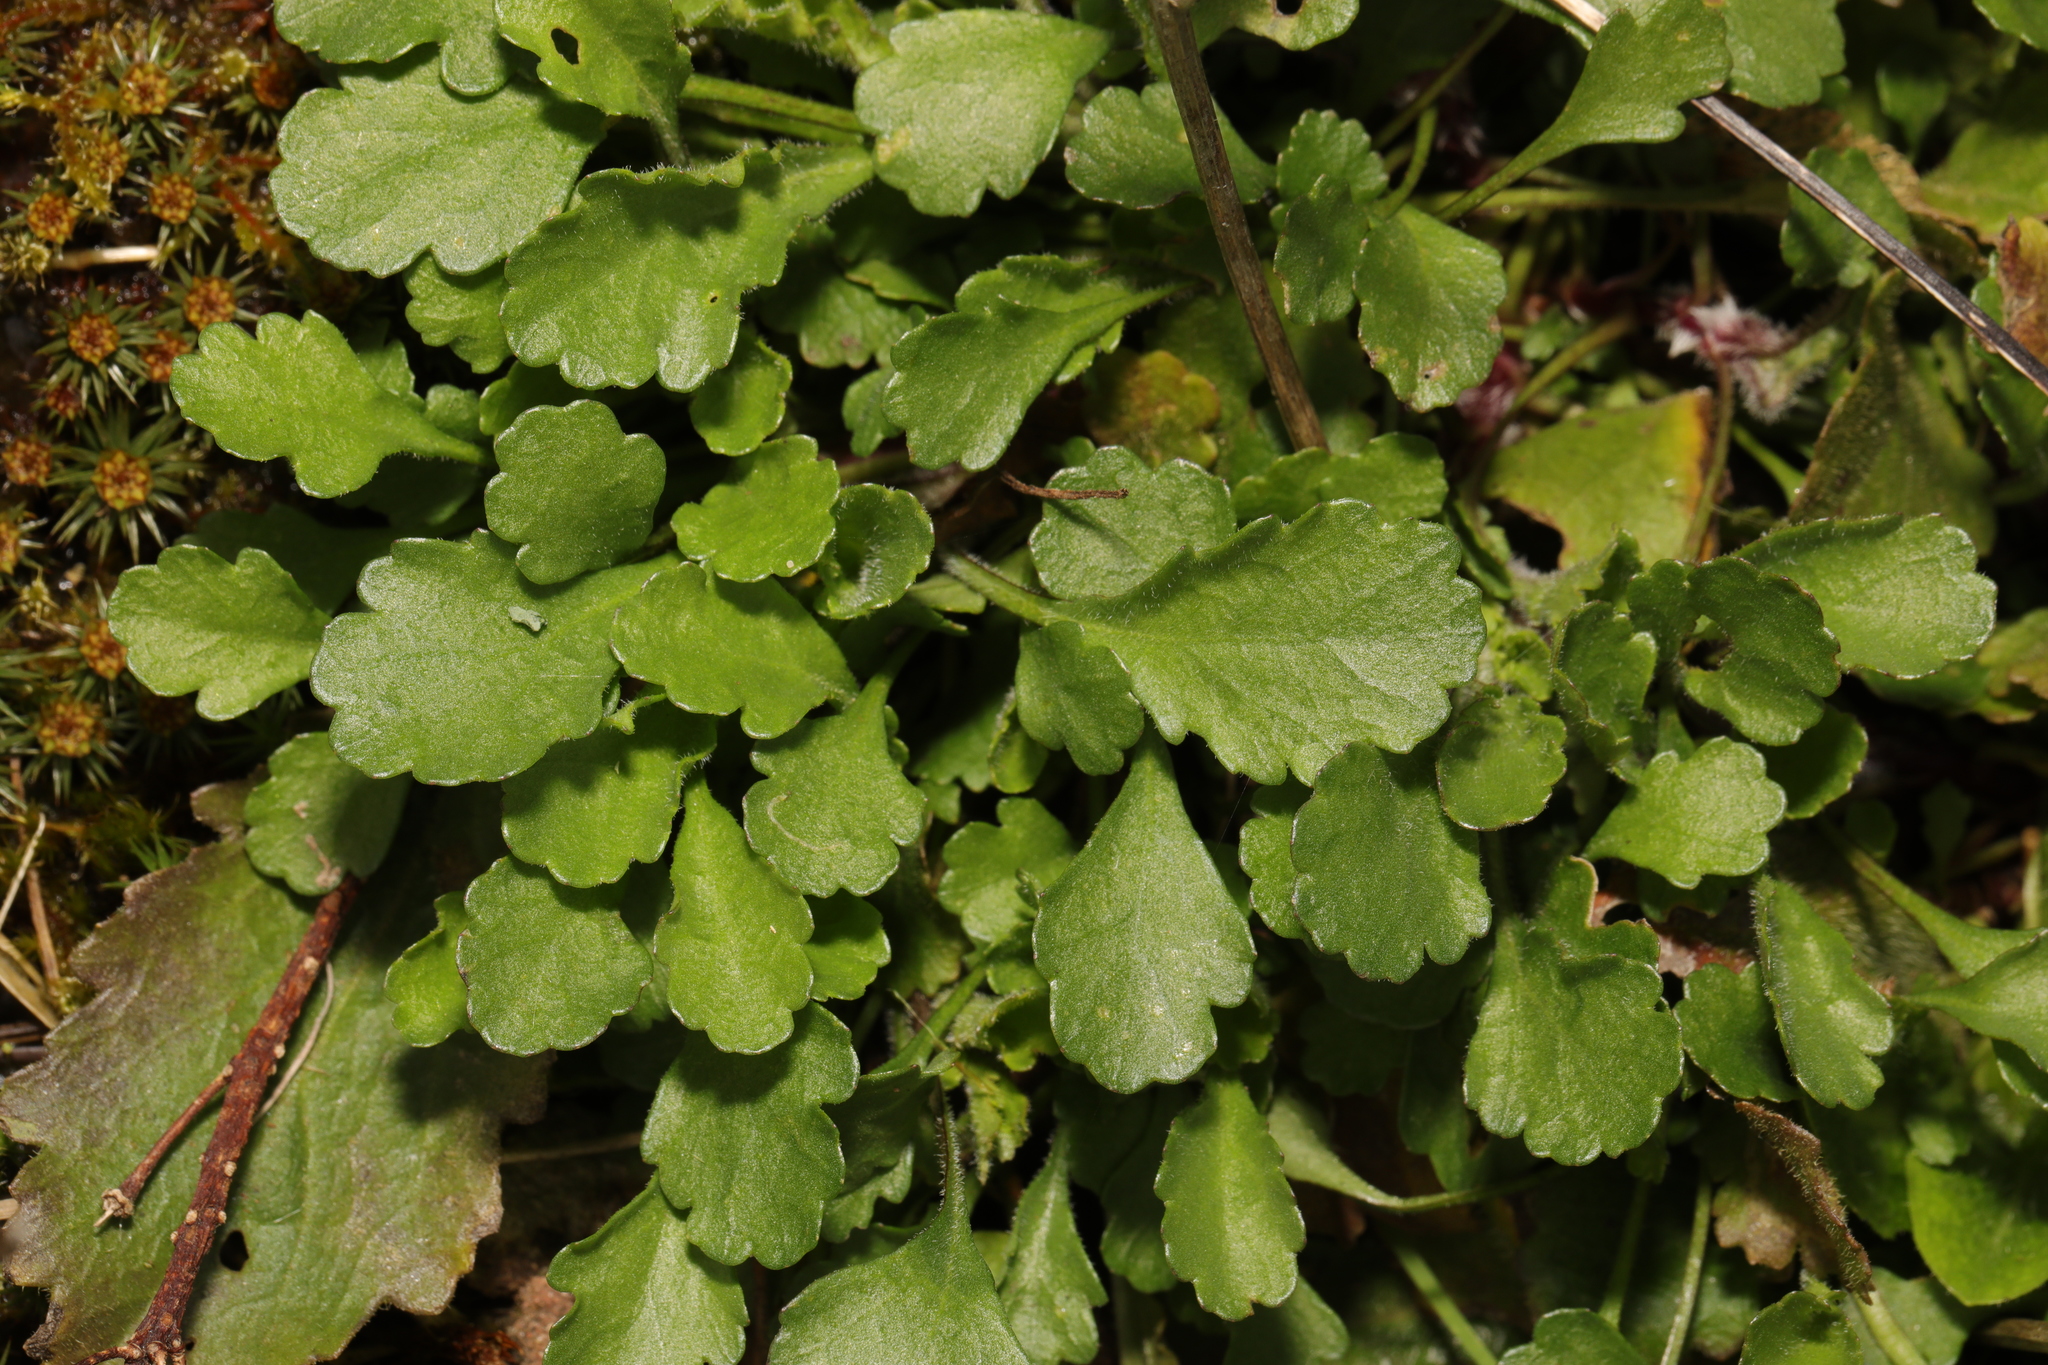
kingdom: Plantae
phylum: Tracheophyta
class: Magnoliopsida
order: Asterales
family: Asteraceae
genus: Leucanthemum
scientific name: Leucanthemum vulgare
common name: Oxeye daisy
